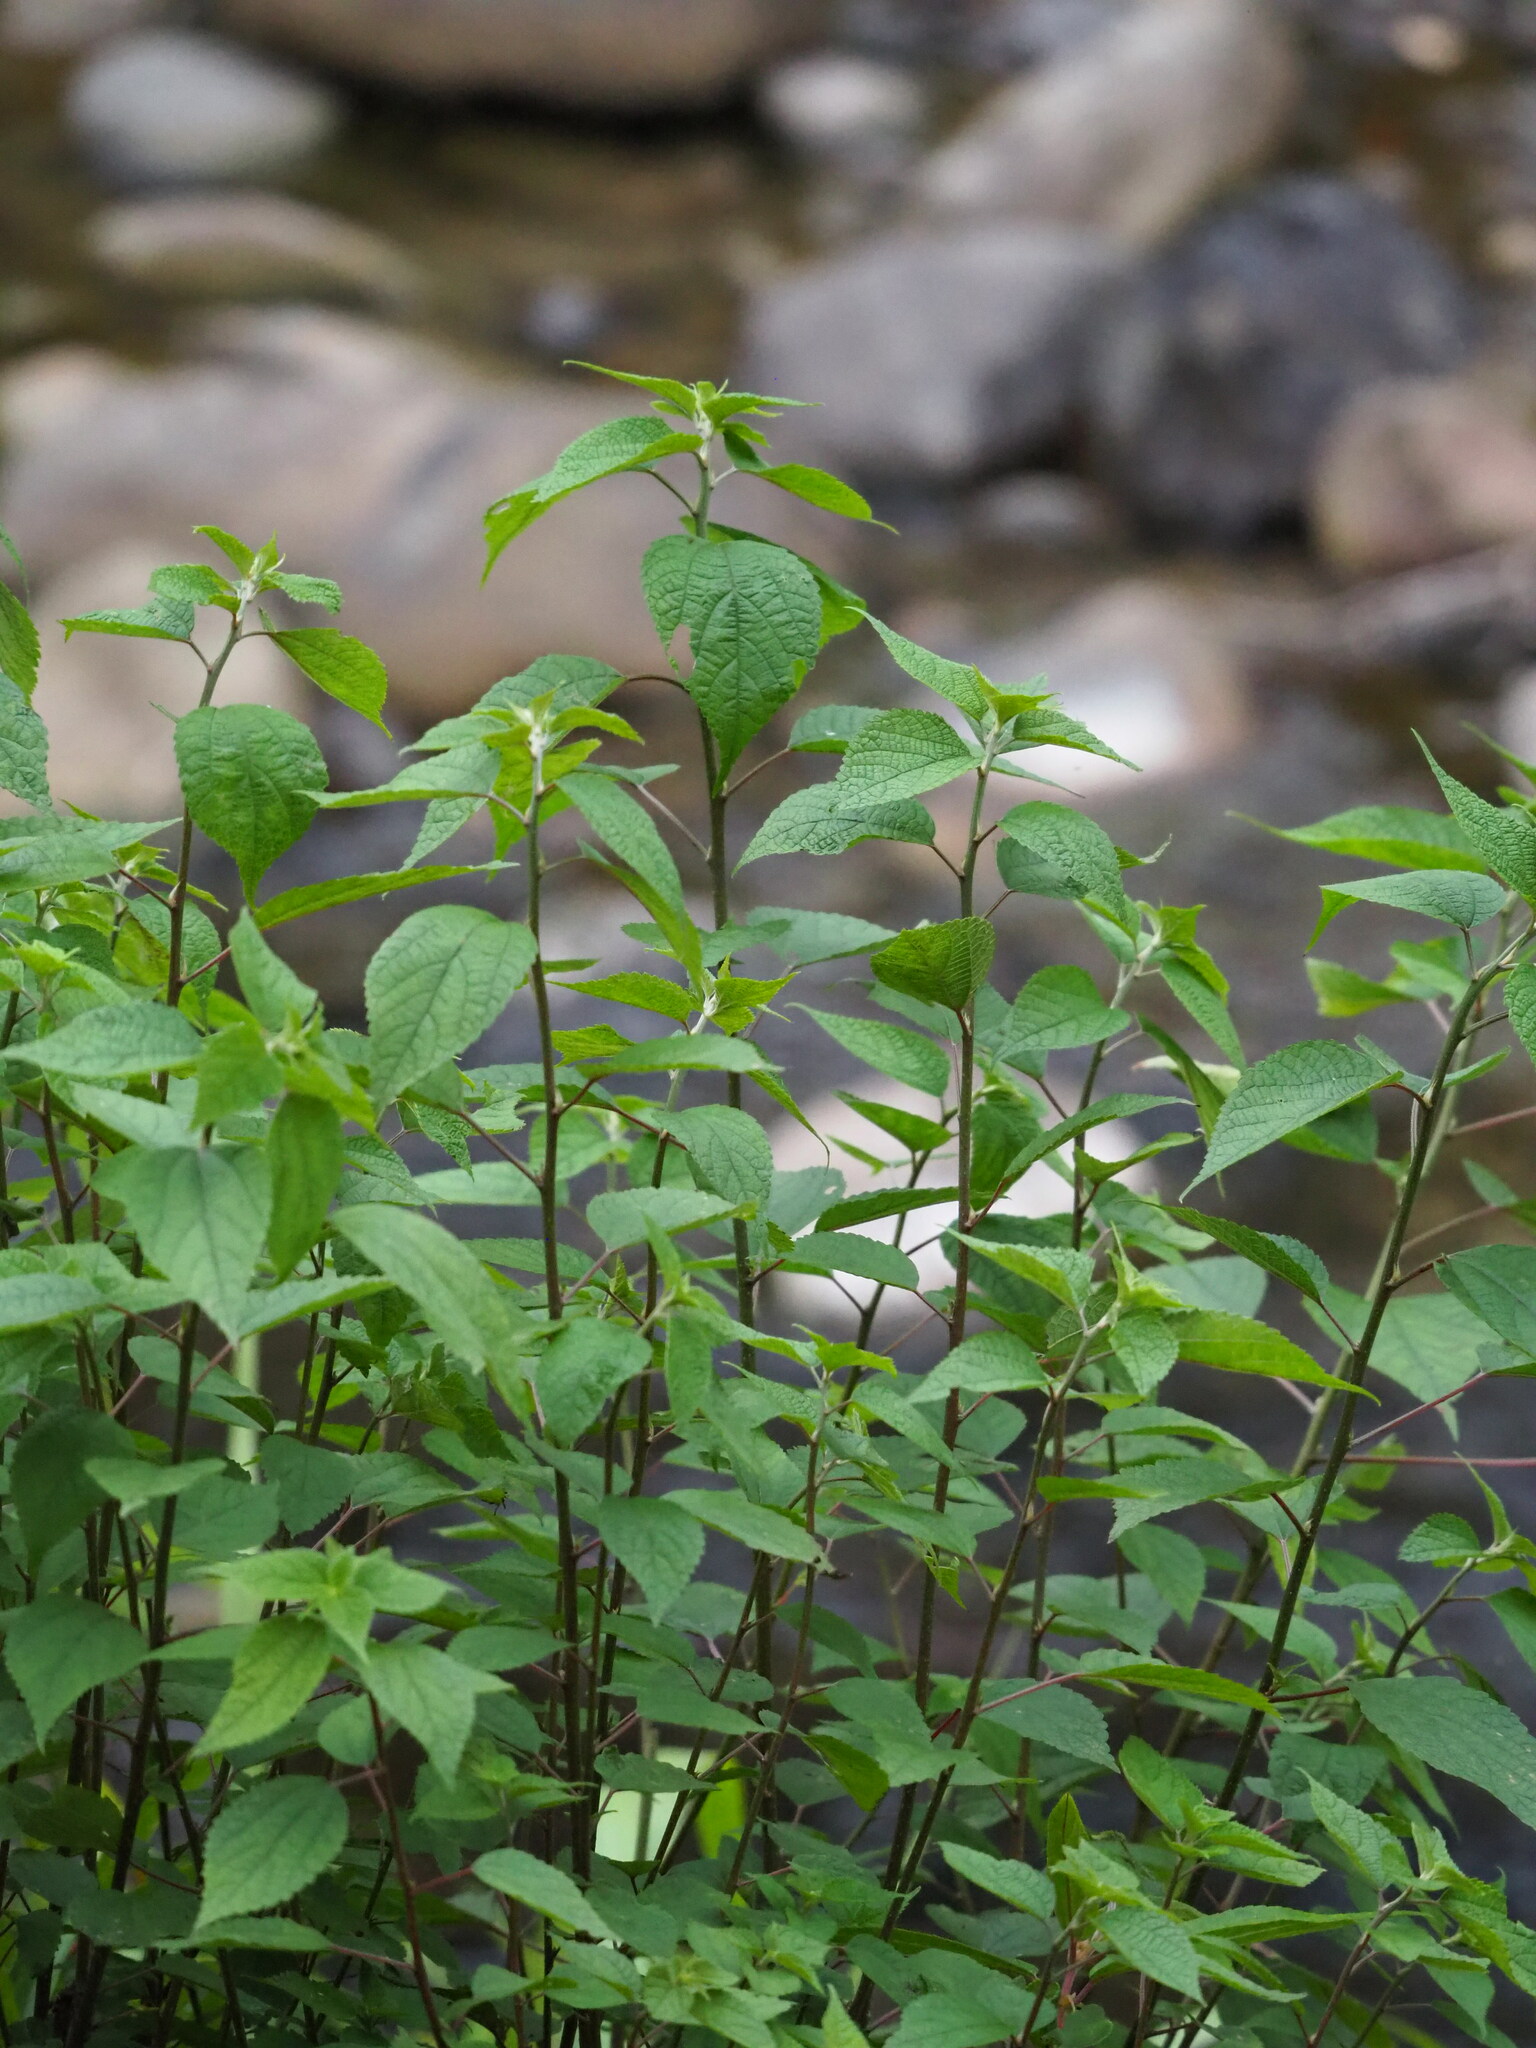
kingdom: Plantae
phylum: Tracheophyta
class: Magnoliopsida
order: Rosales
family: Urticaceae
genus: Boehmeria
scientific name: Boehmeria nivea
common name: Ramie chinese grass
